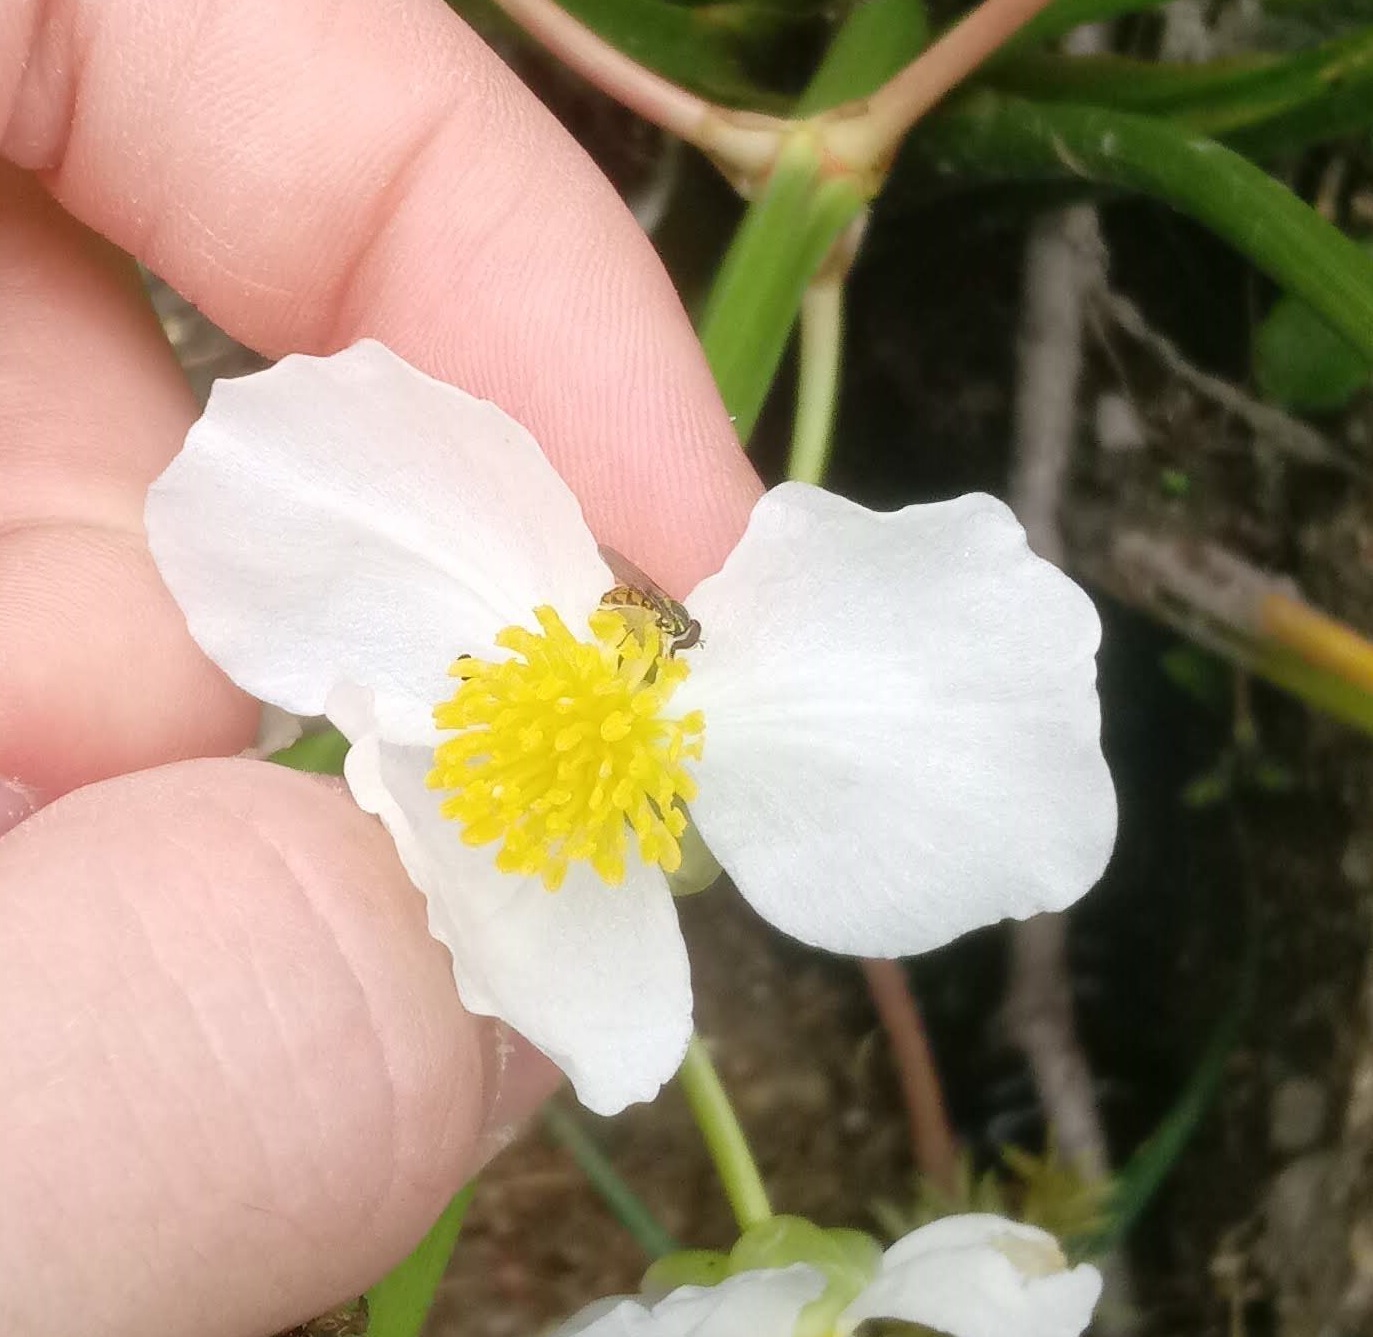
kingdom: Animalia
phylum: Arthropoda
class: Insecta
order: Diptera
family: Syrphidae
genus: Toxomerus
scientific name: Toxomerus marginatus
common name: Syrphid fly
